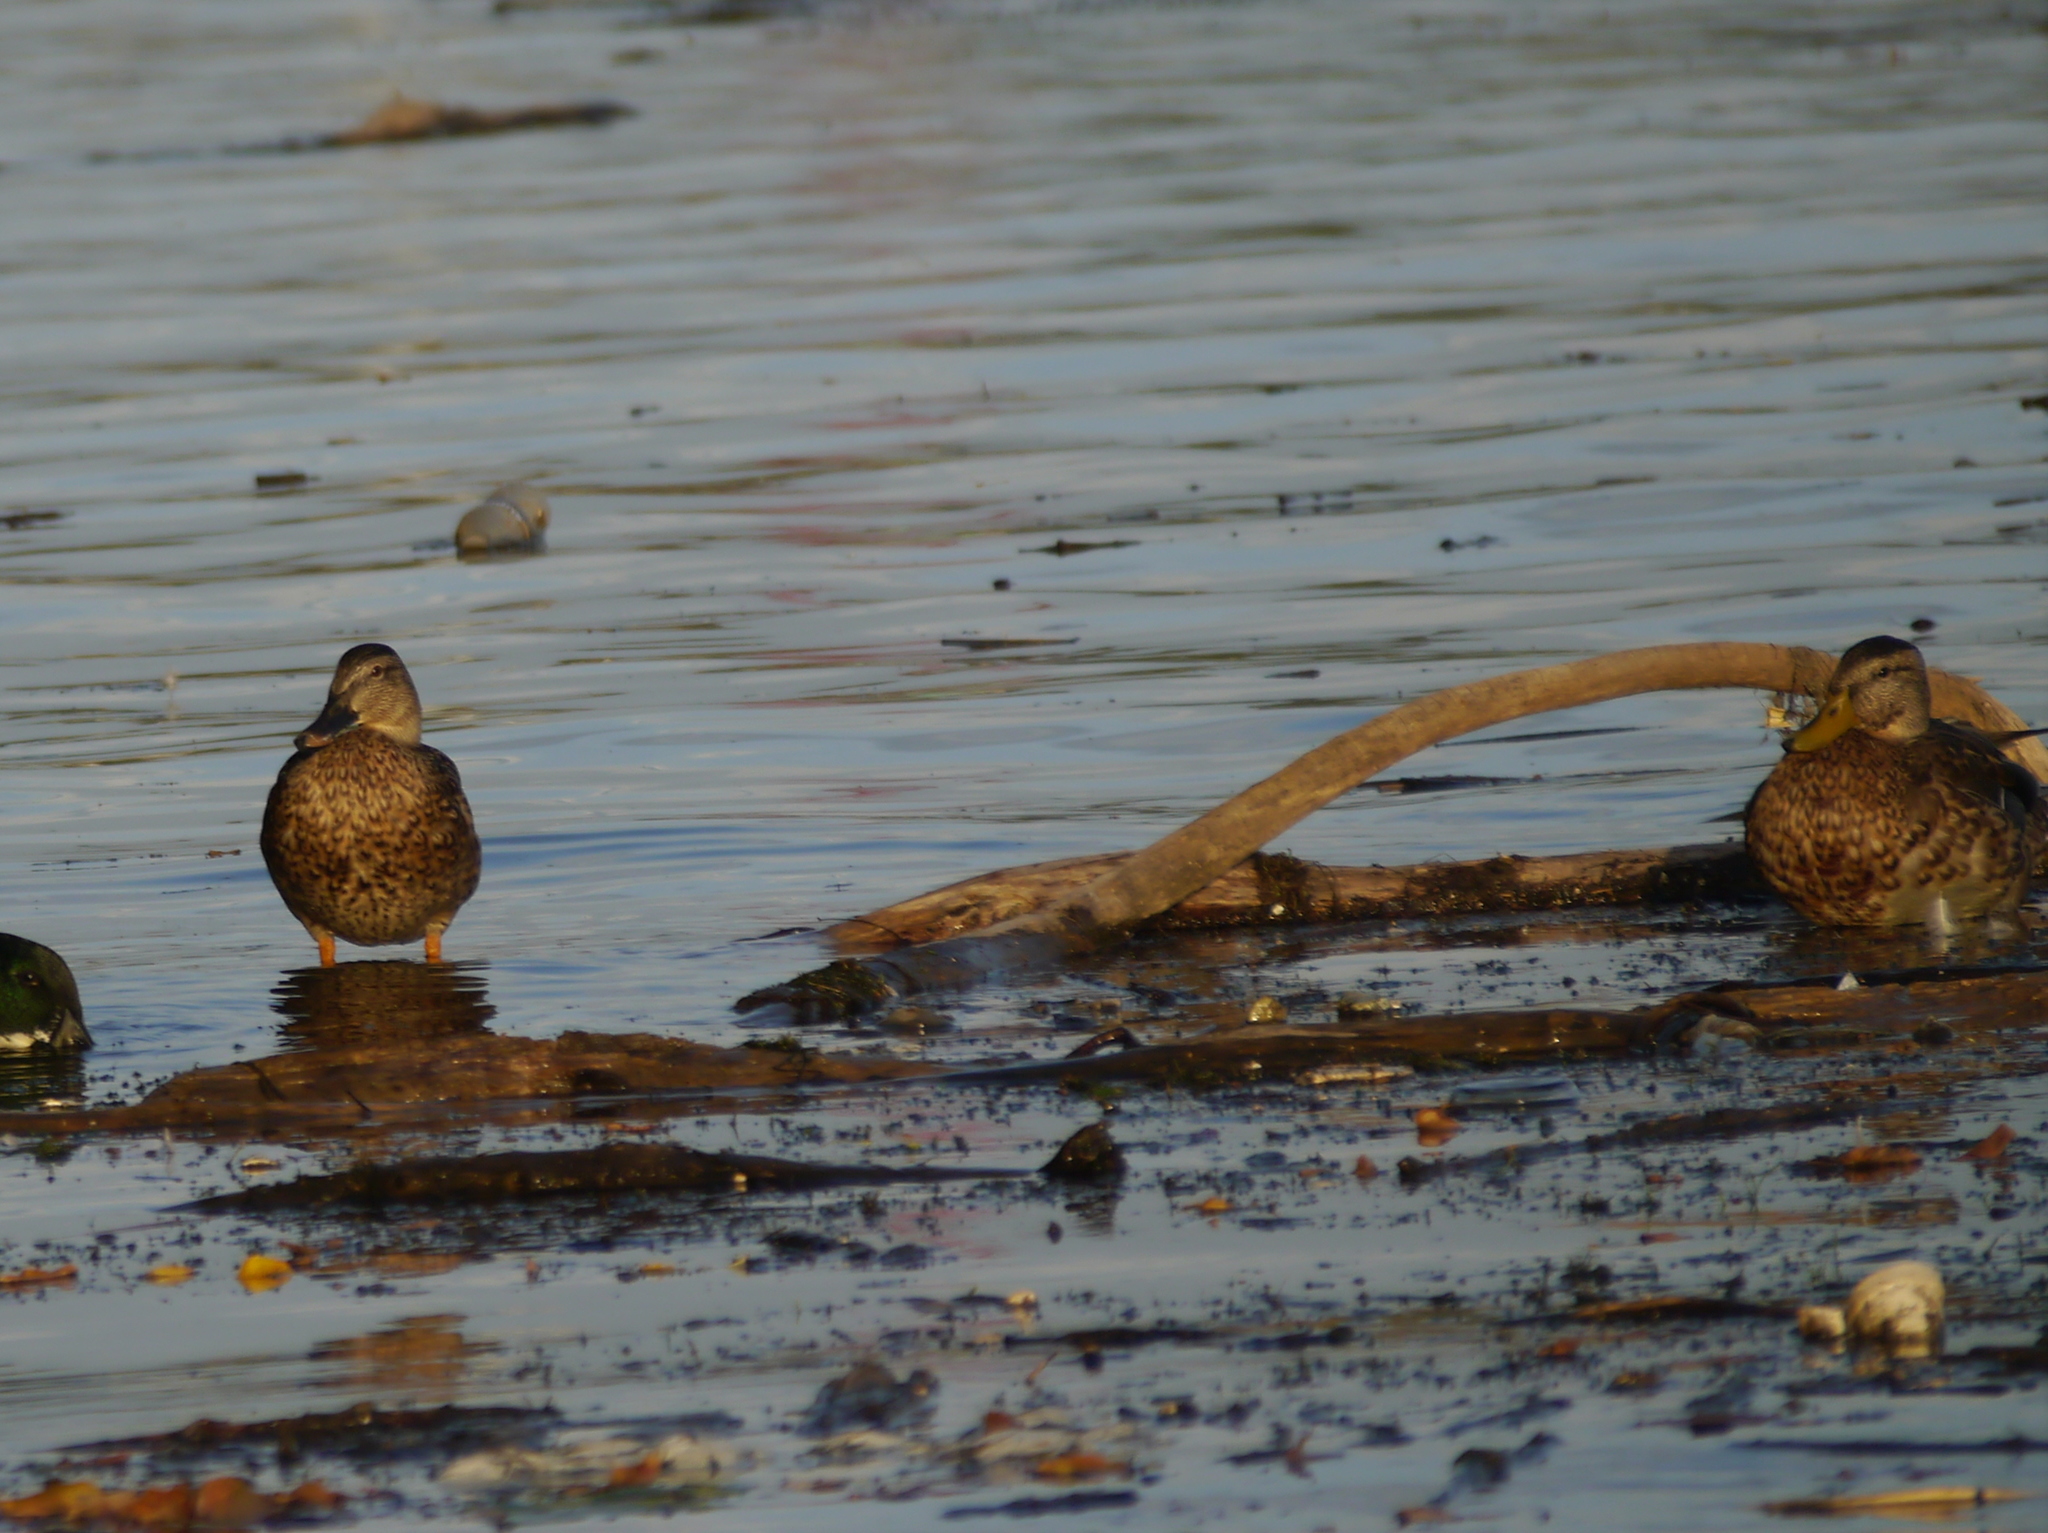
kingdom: Animalia
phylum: Chordata
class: Aves
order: Anseriformes
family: Anatidae
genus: Anas
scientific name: Anas platyrhynchos
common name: Mallard
